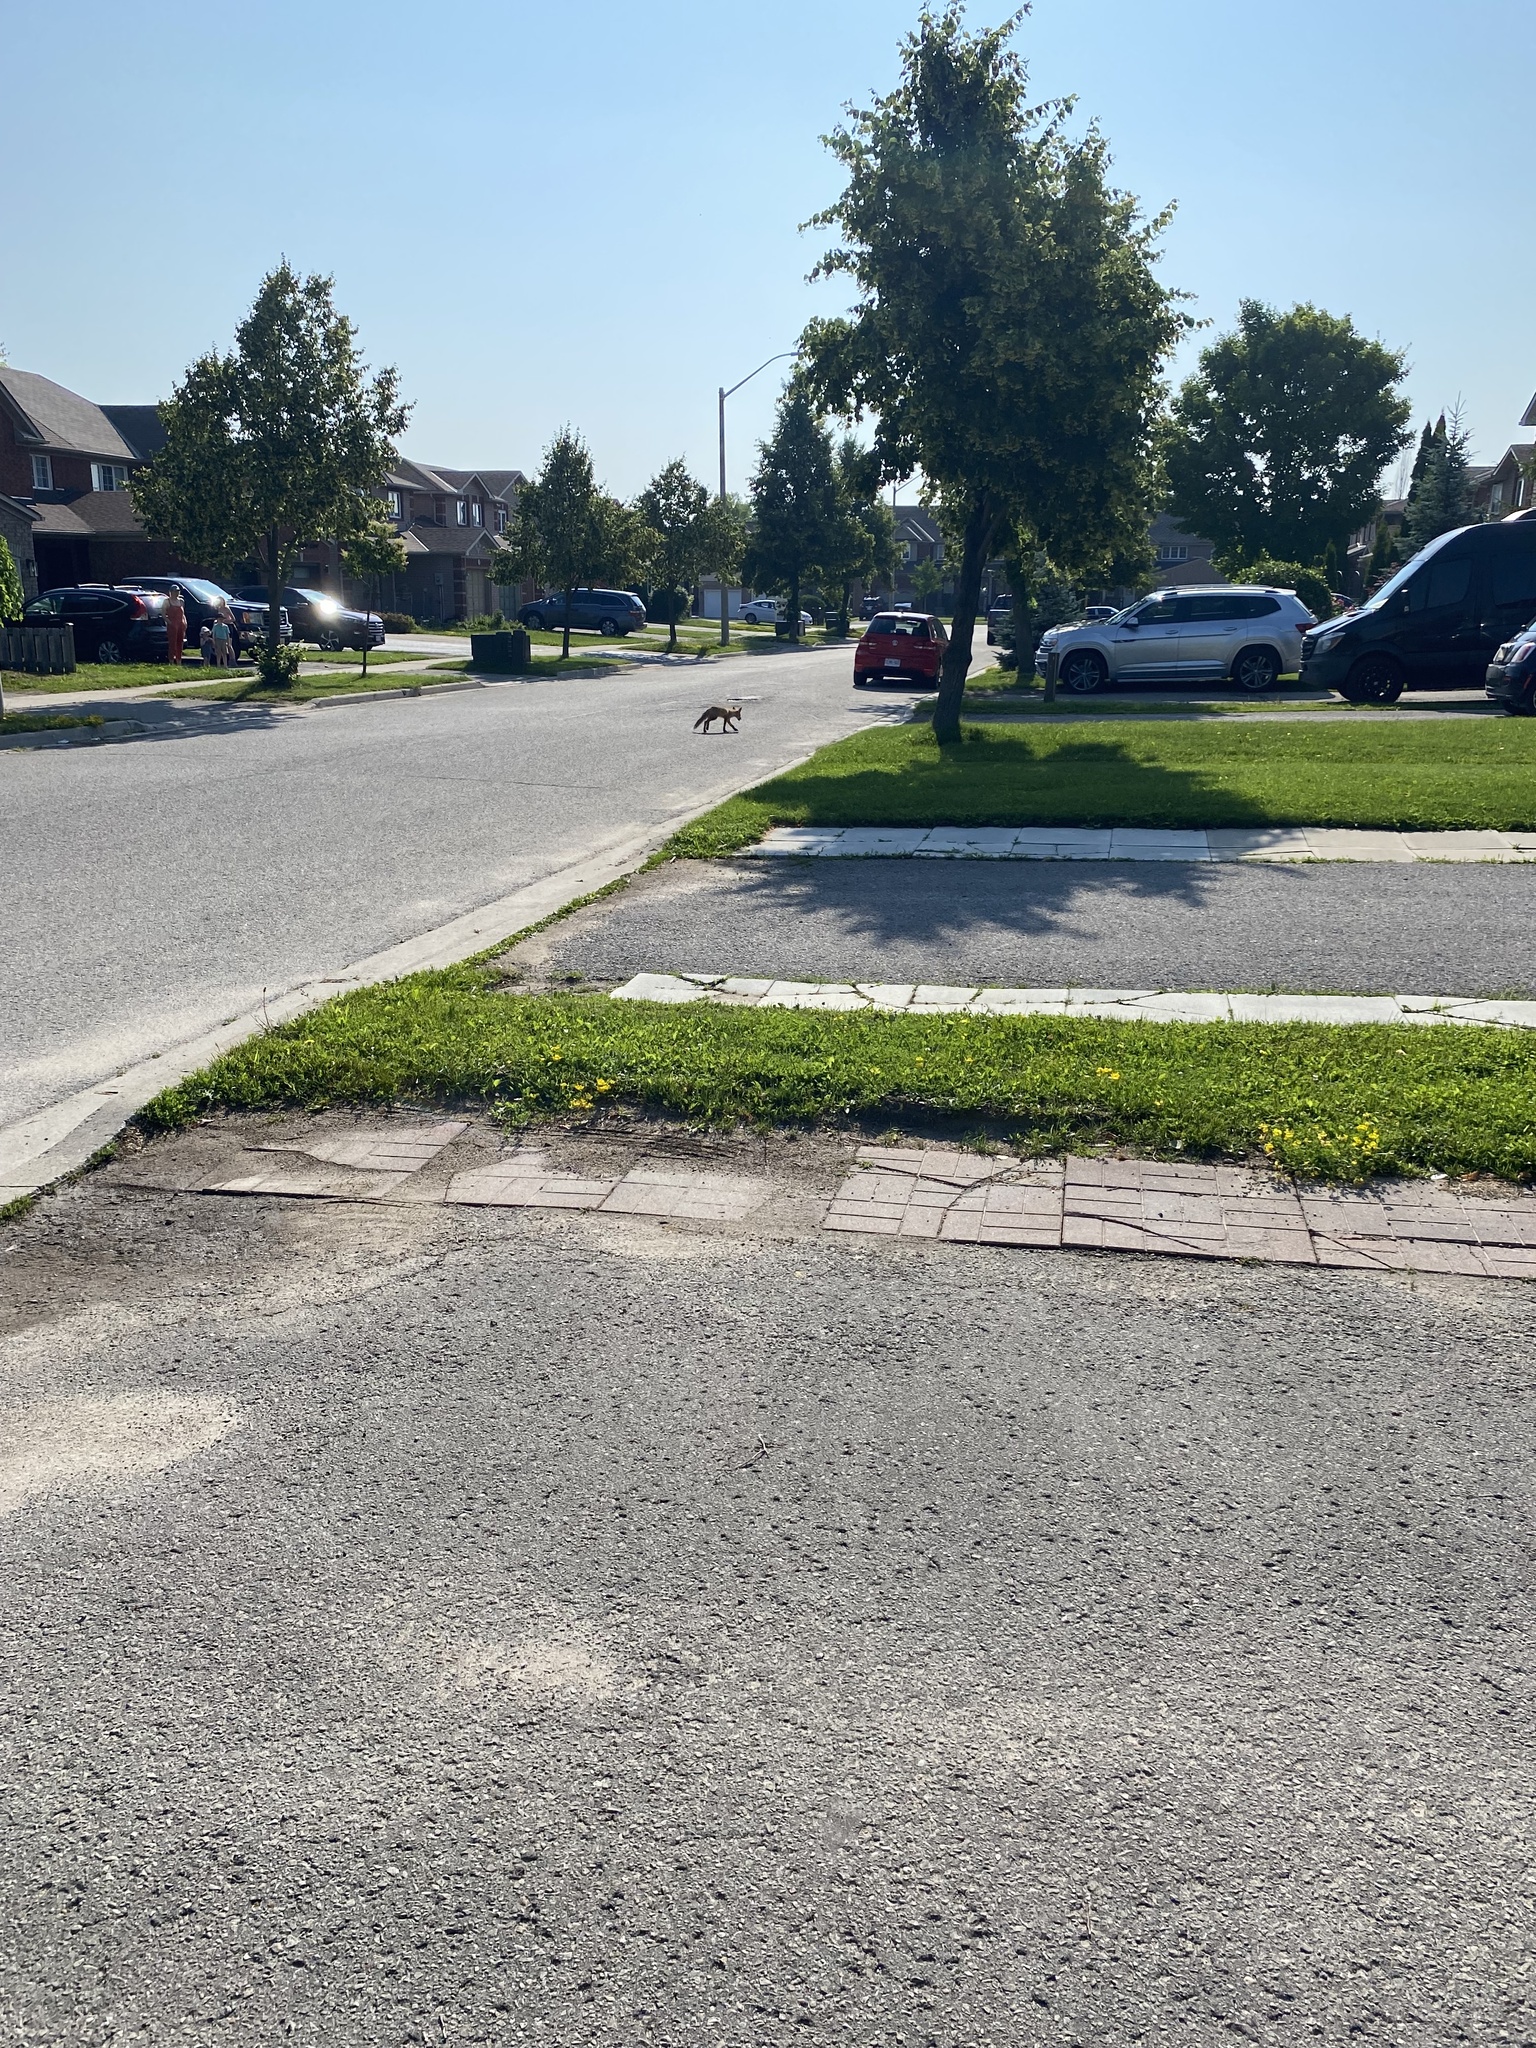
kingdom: Animalia
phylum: Chordata
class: Mammalia
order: Carnivora
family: Canidae
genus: Vulpes
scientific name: Vulpes vulpes
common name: Red fox
